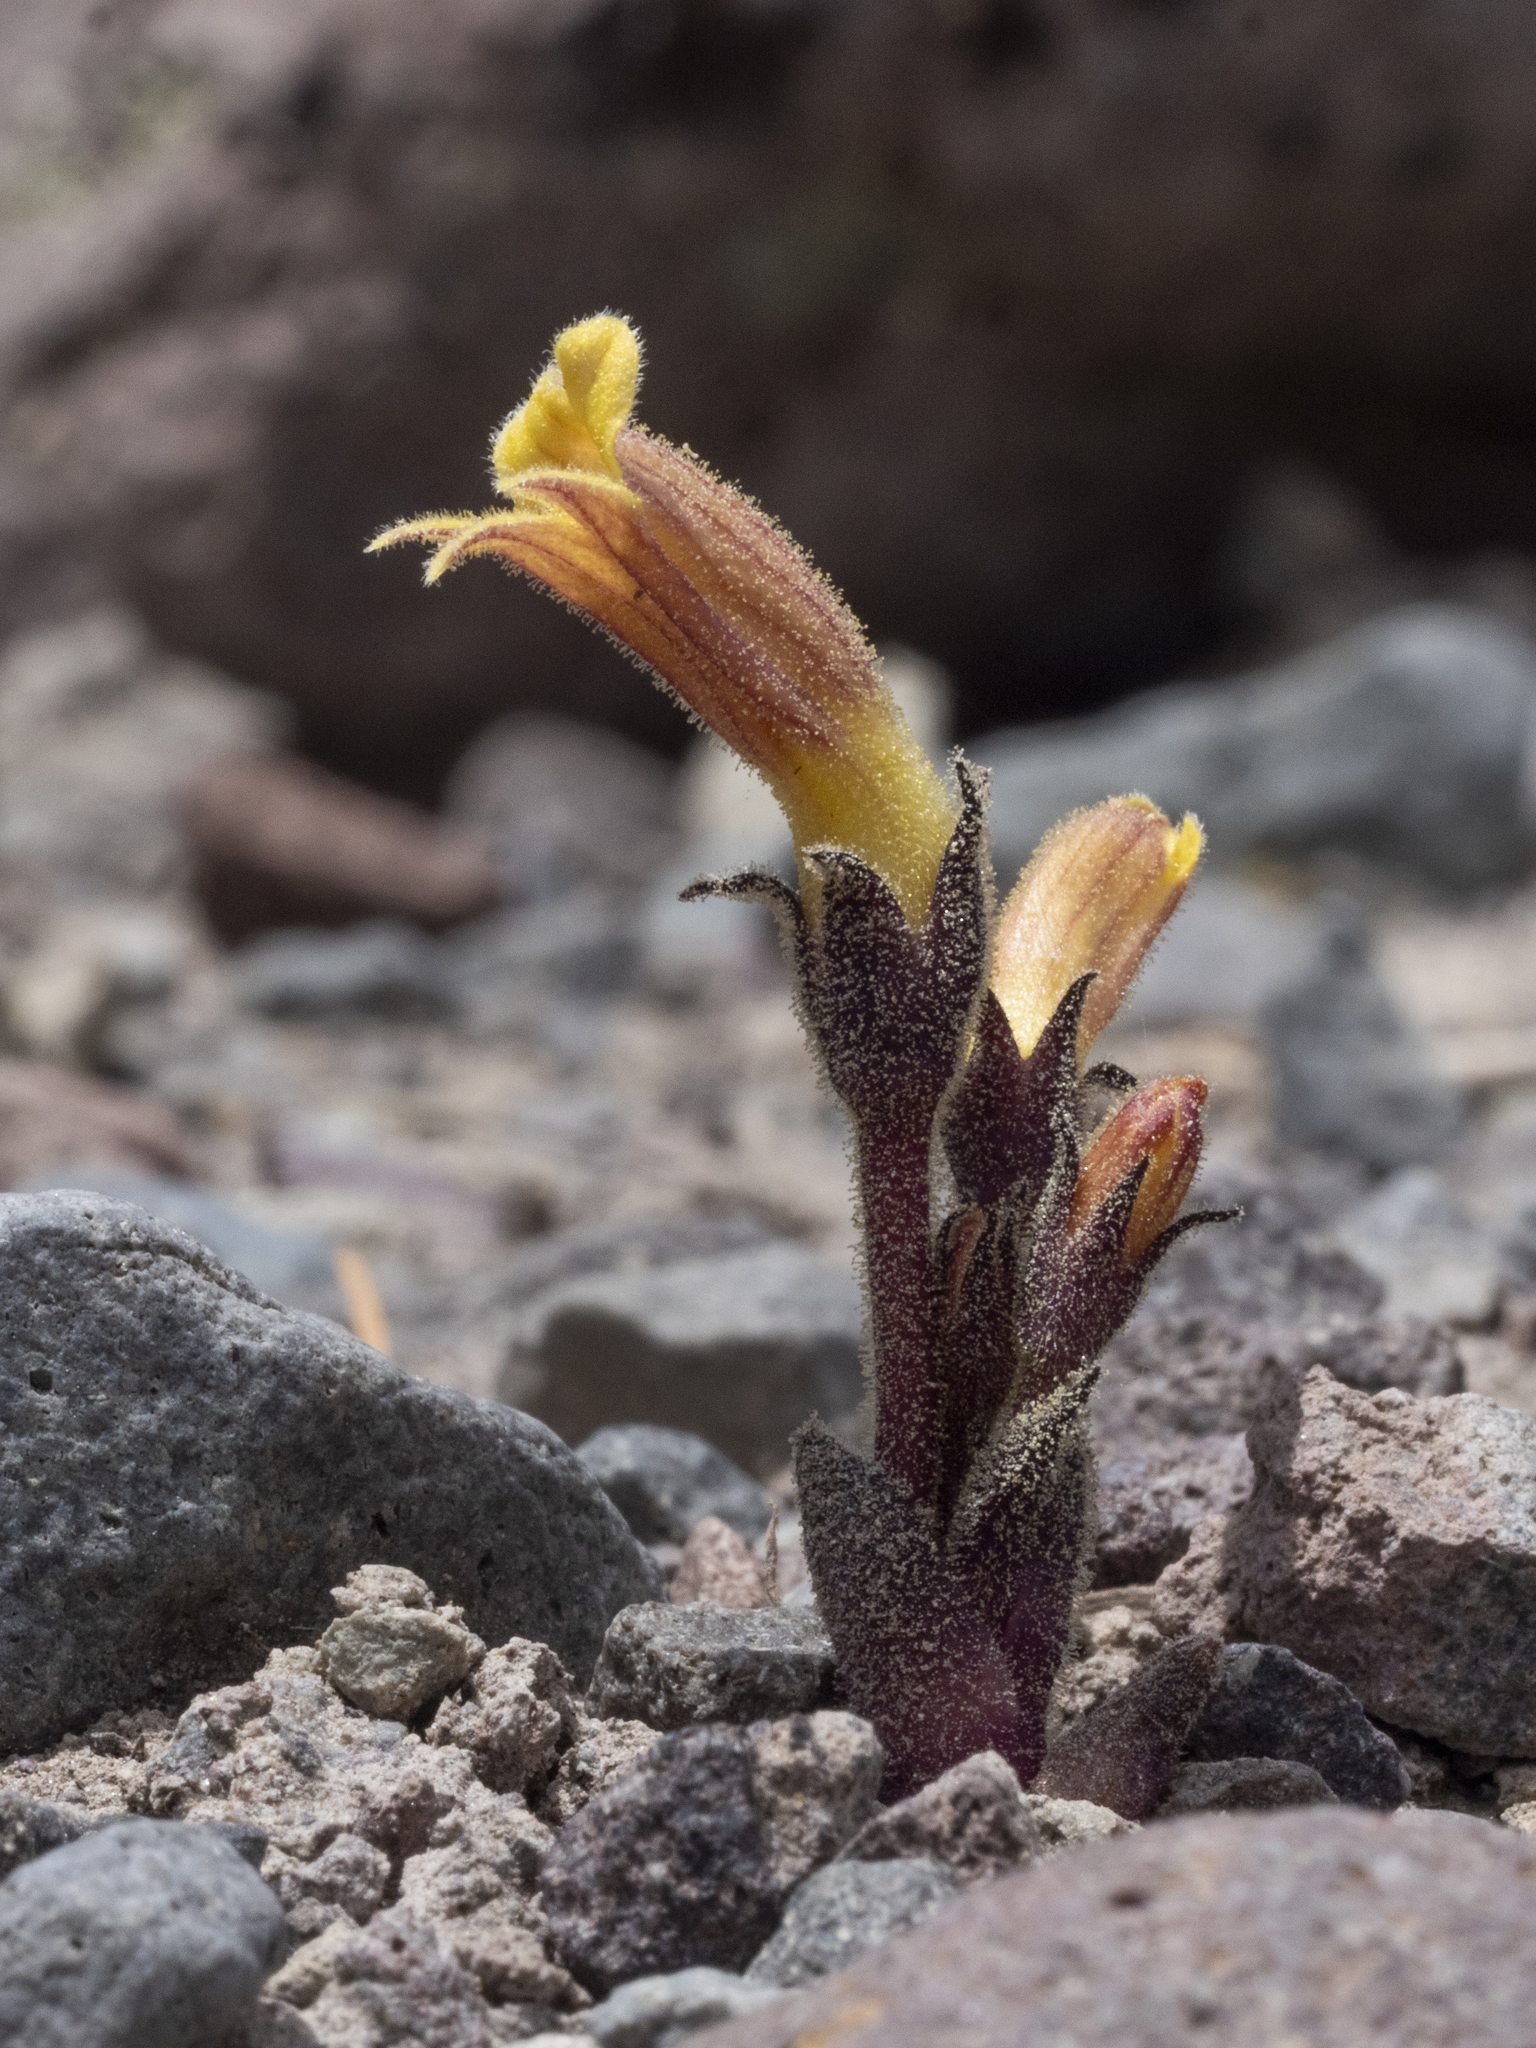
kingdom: Plantae
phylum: Tracheophyta
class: Magnoliopsida
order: Lamiales
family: Orobanchaceae
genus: Aphyllon
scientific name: Aphyllon franciscanum
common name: San francisco broomrape
